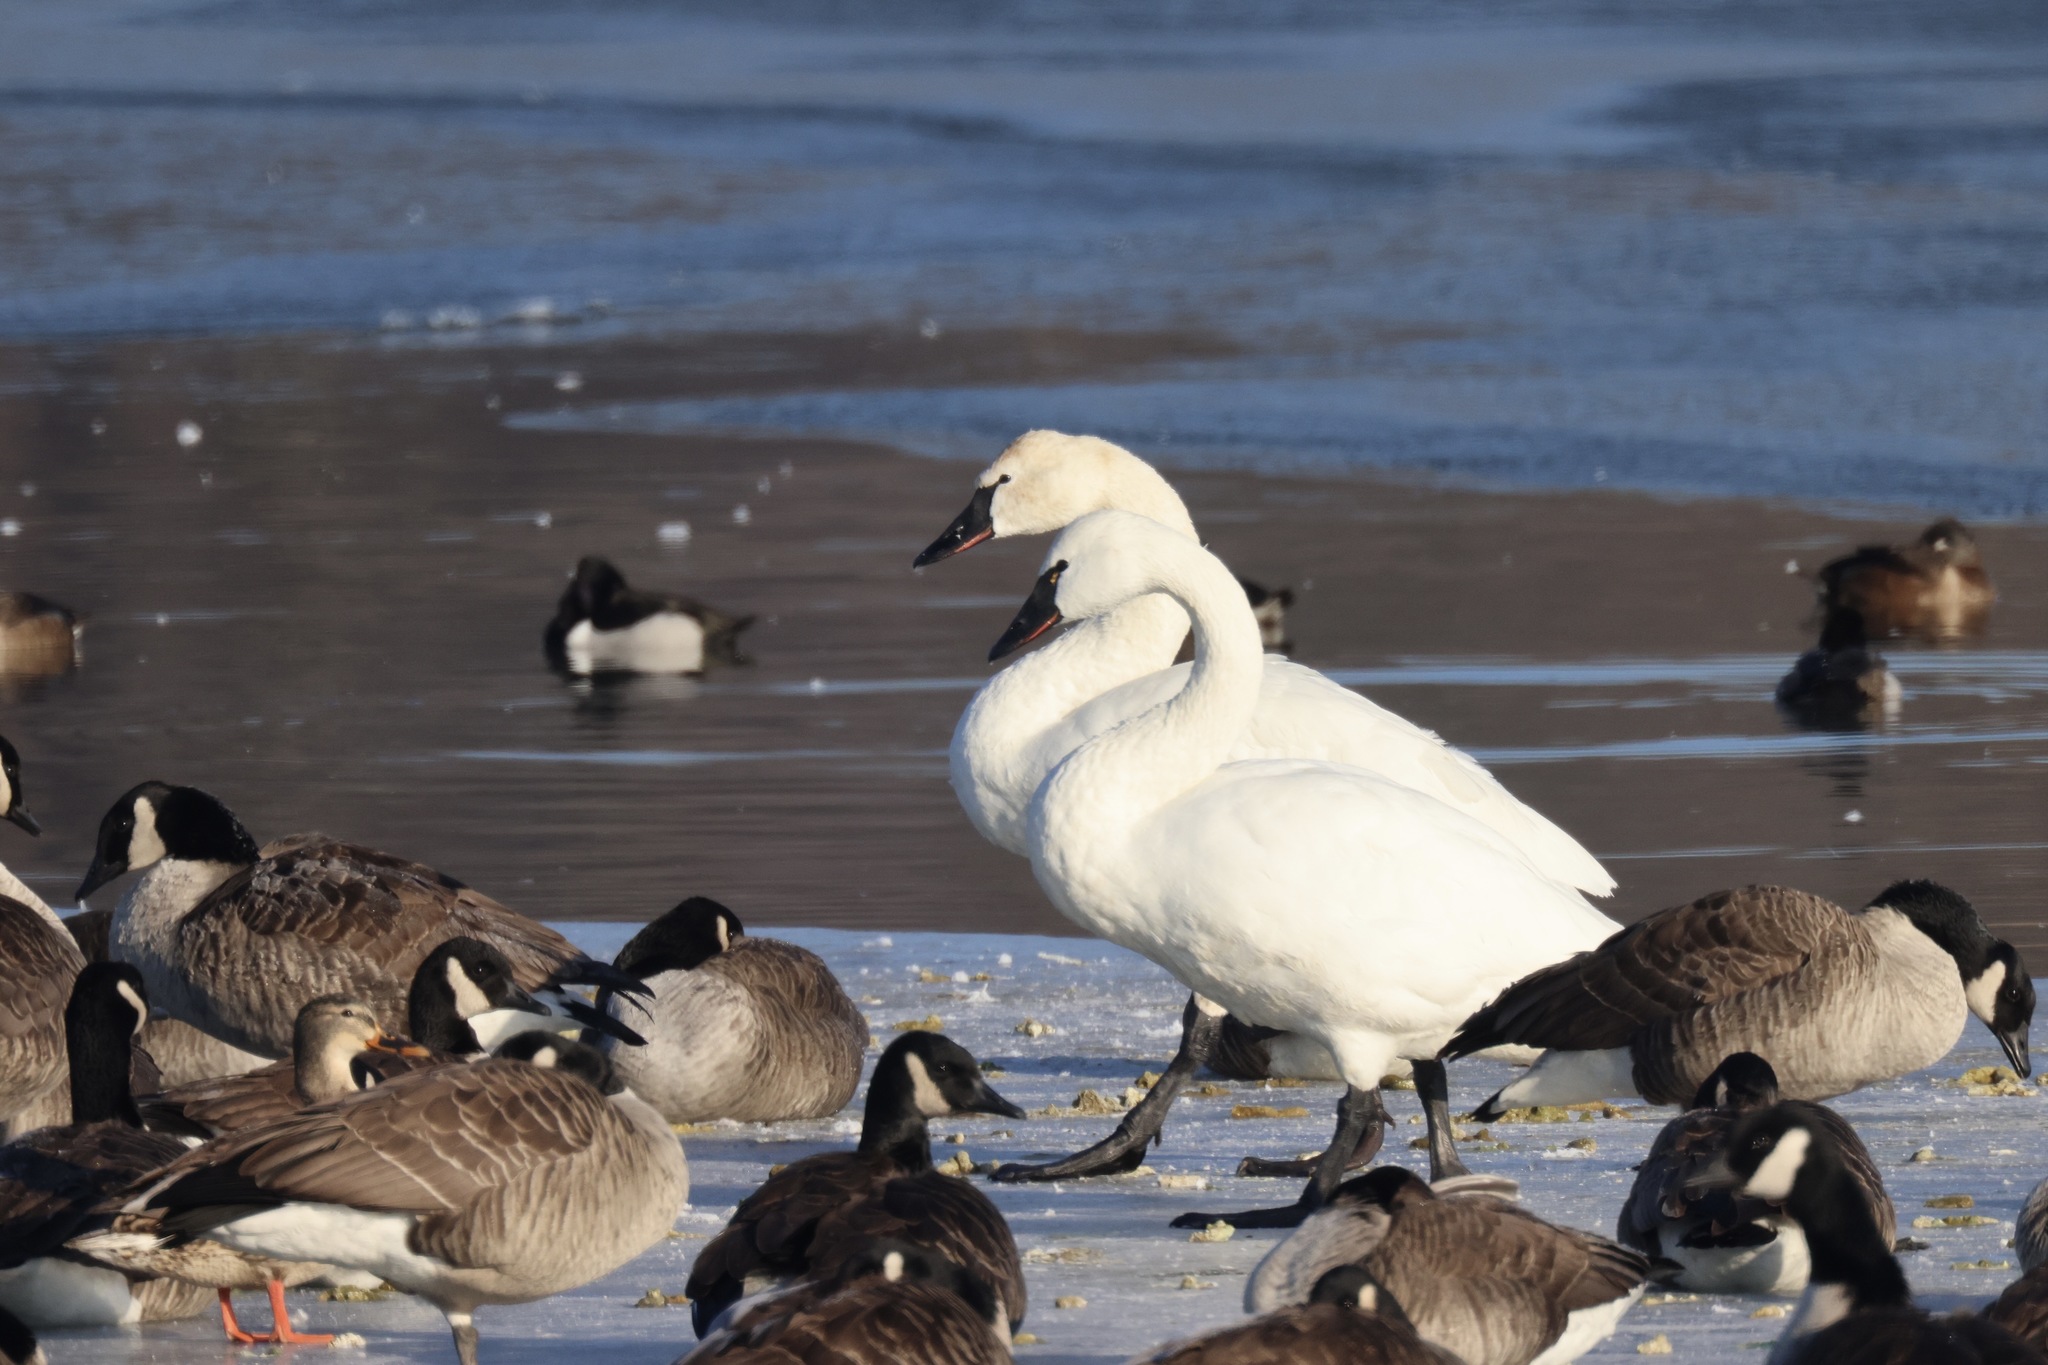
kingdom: Animalia
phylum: Chordata
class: Aves
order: Anseriformes
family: Anatidae
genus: Cygnus
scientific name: Cygnus columbianus
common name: Tundra swan
